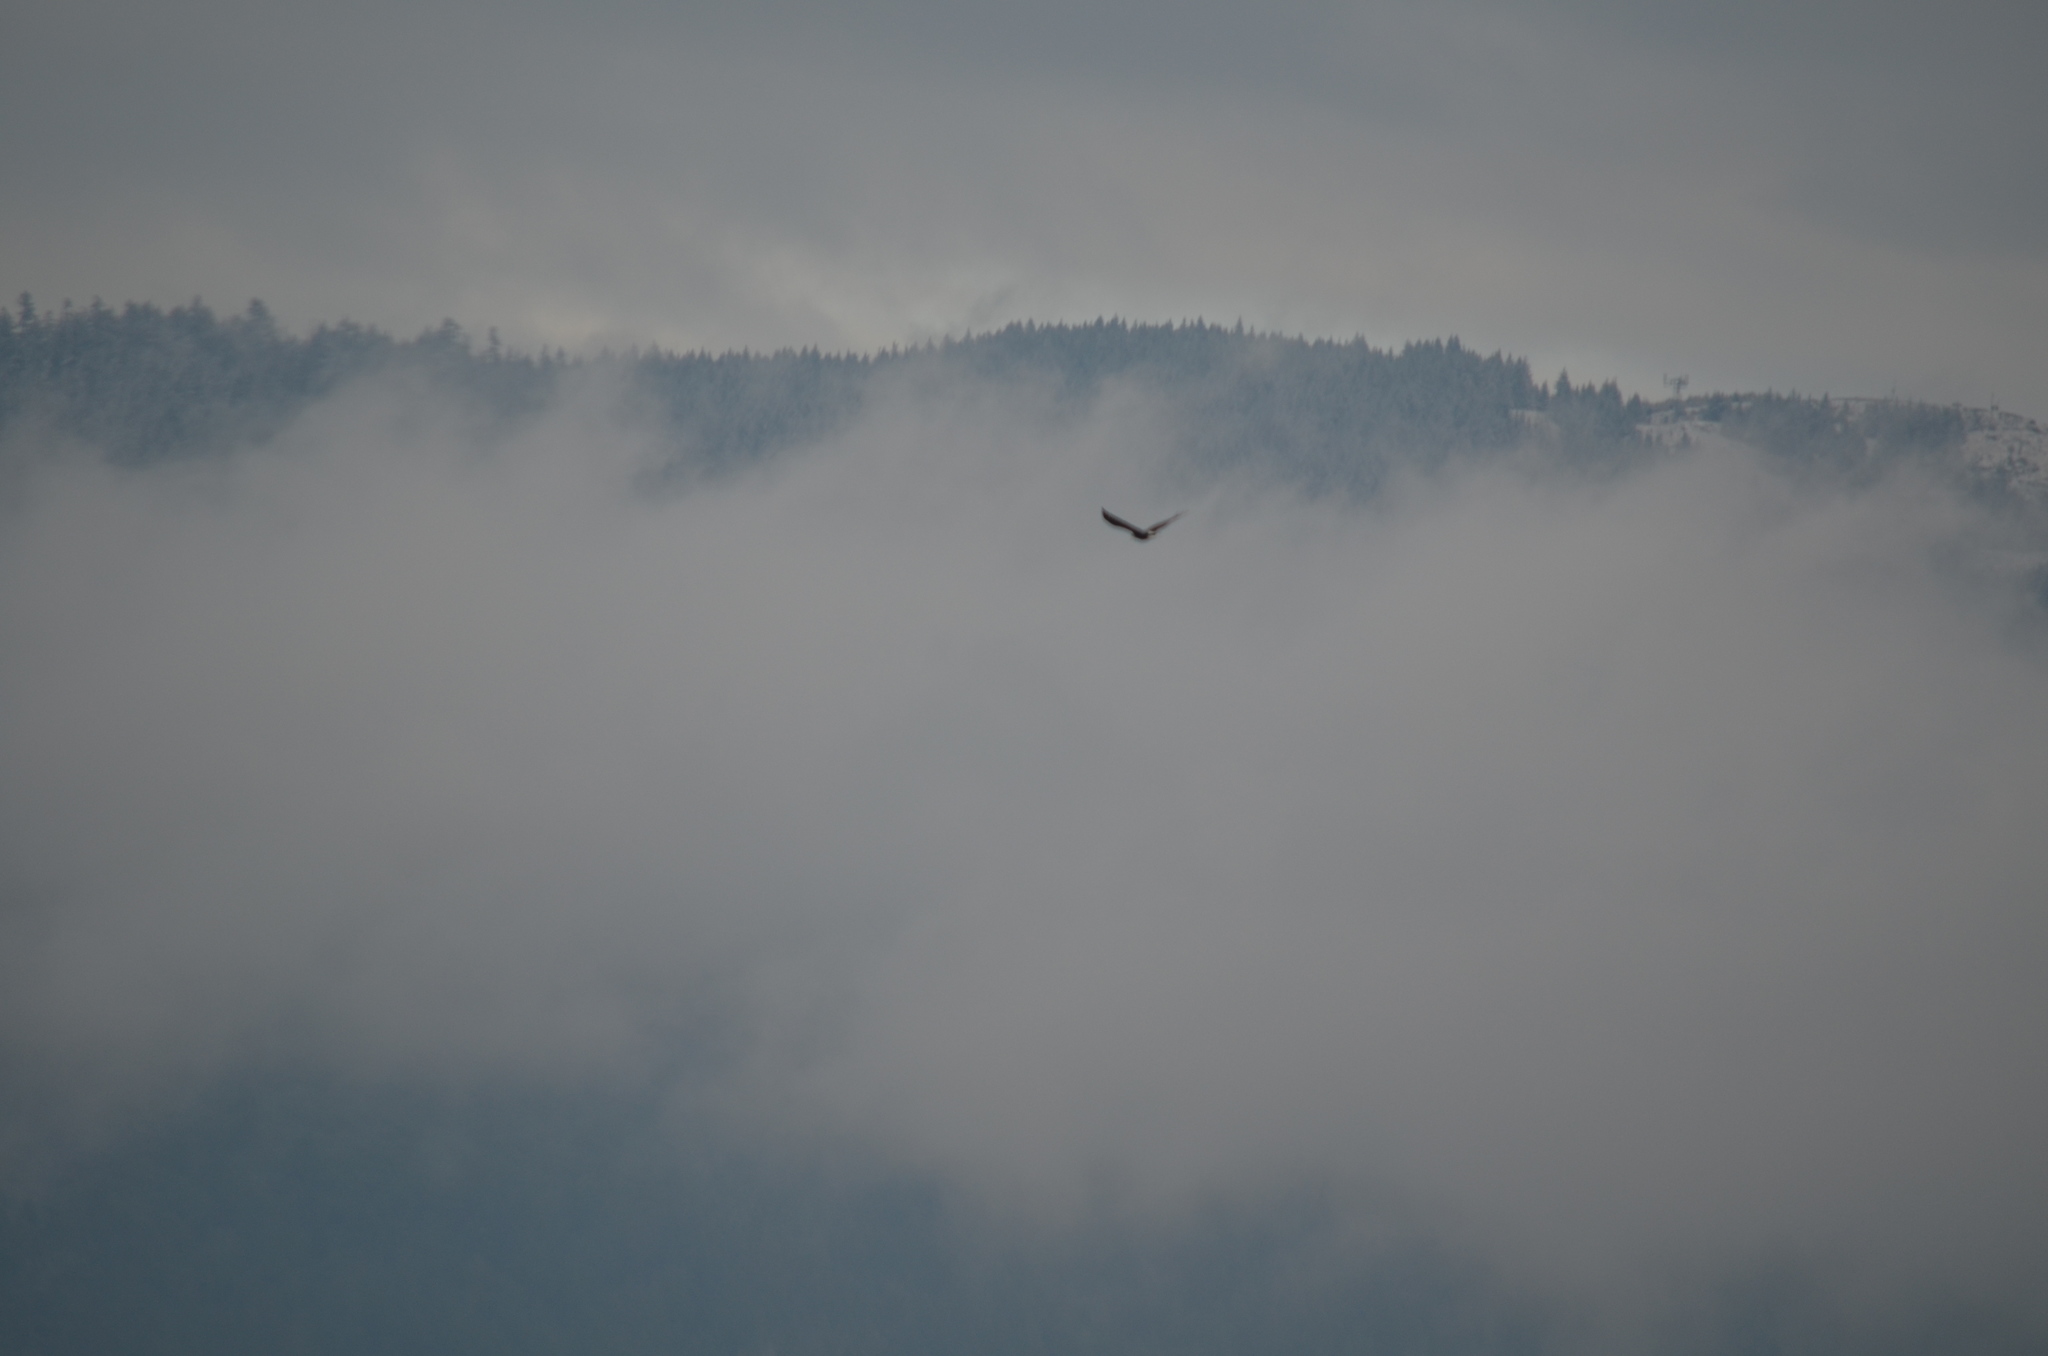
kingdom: Animalia
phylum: Chordata
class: Aves
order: Accipitriformes
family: Accipitridae
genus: Haliaeetus
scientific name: Haliaeetus leucocephalus
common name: Bald eagle
